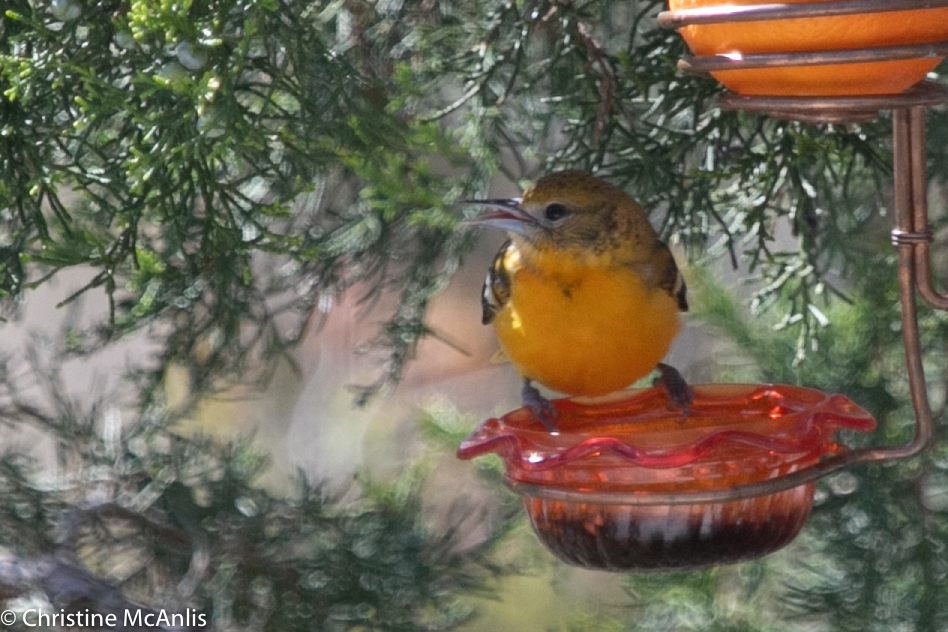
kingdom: Animalia
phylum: Chordata
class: Aves
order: Passeriformes
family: Icteridae
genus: Icterus
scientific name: Icterus galbula
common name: Baltimore oriole
